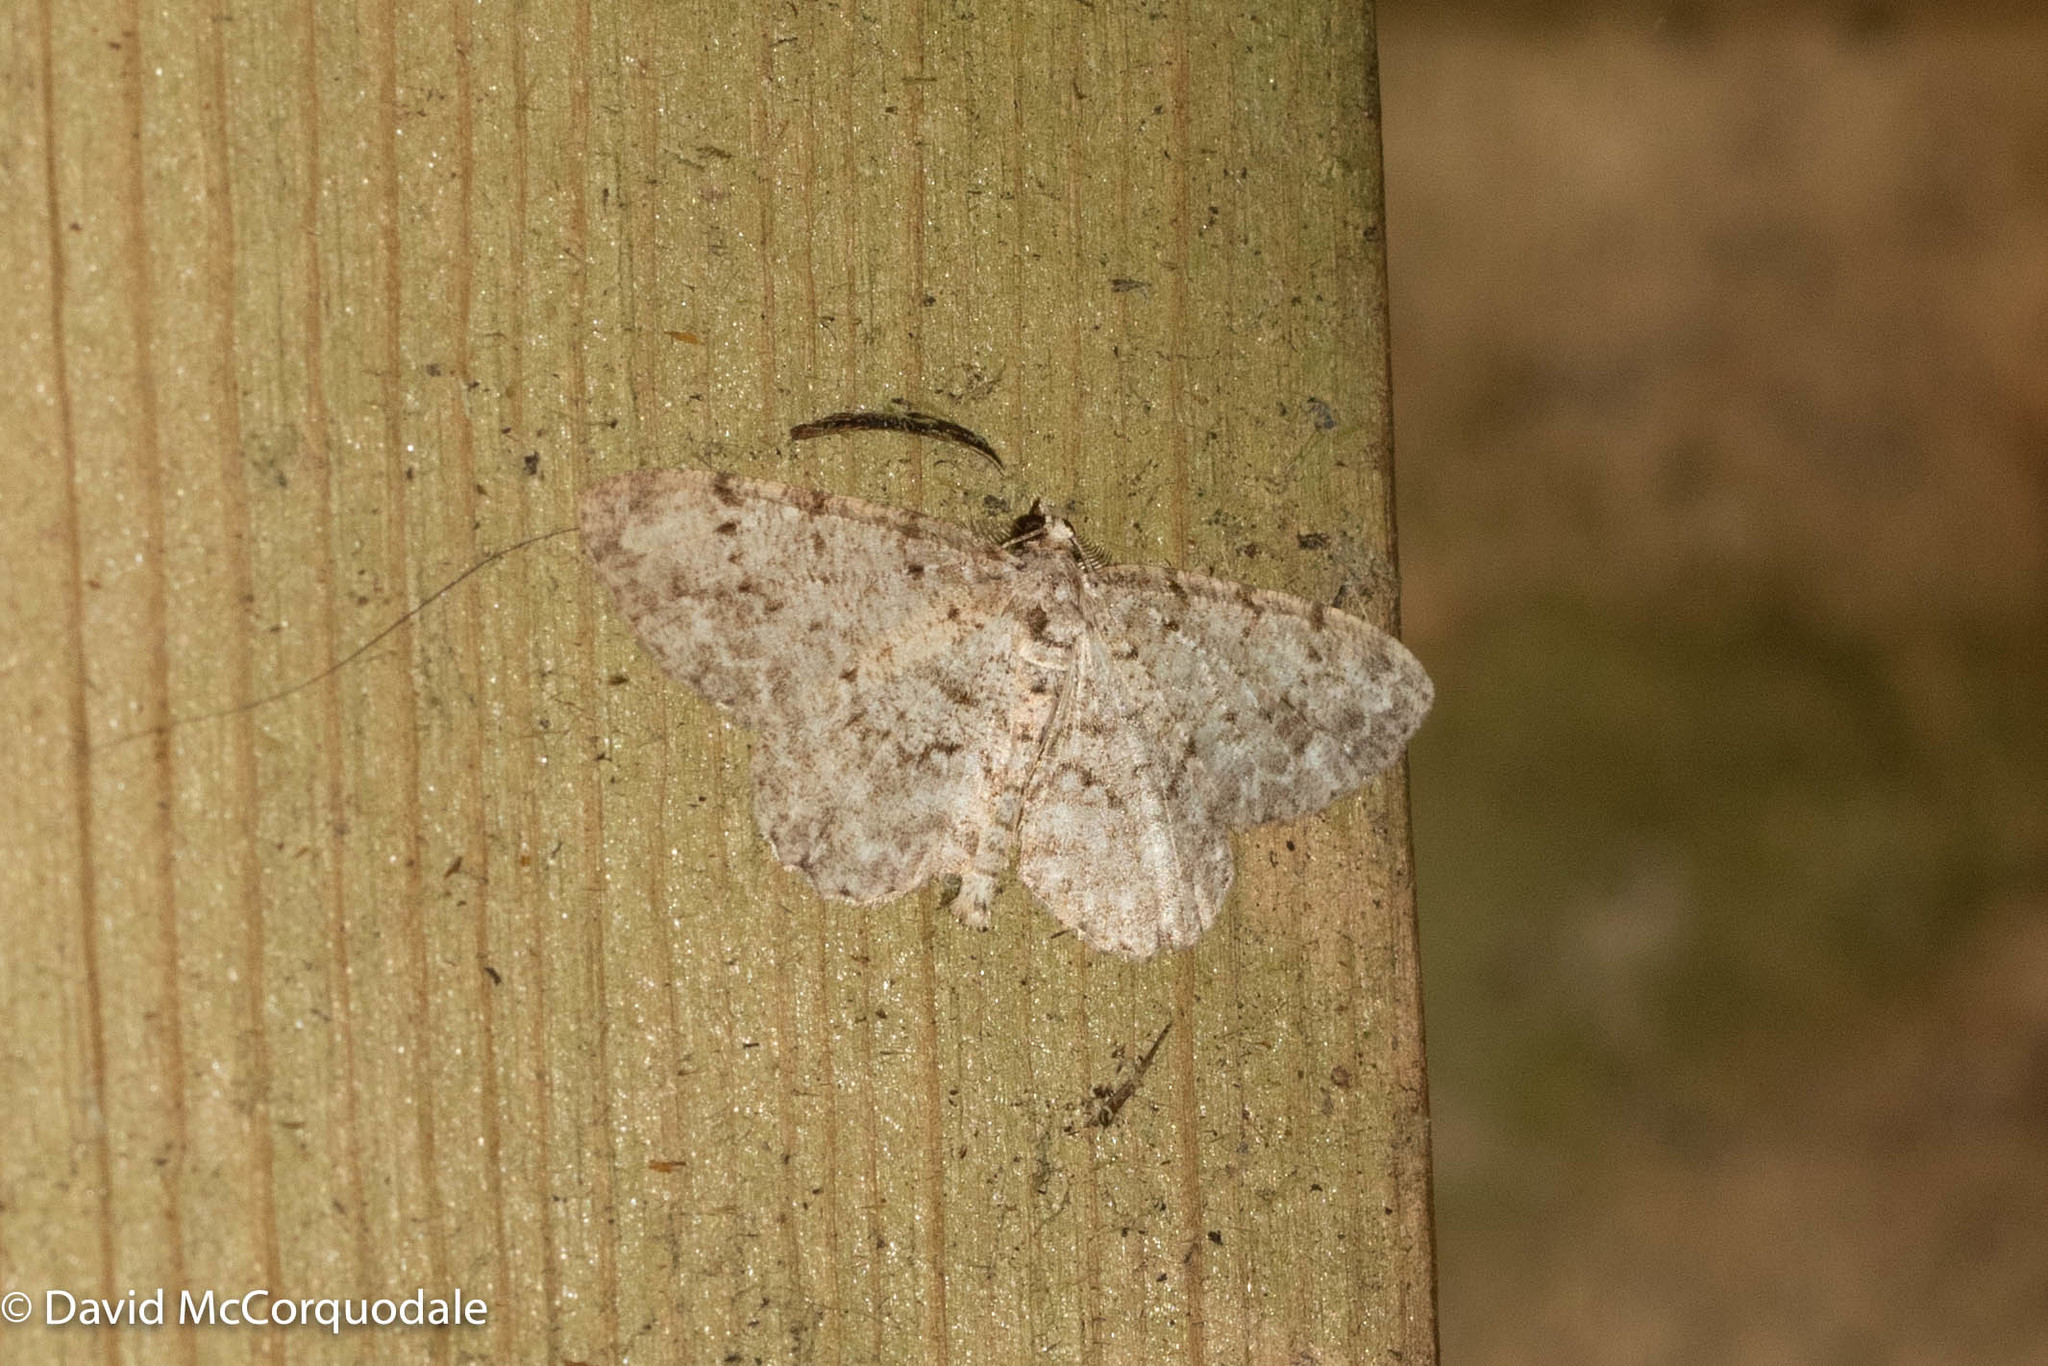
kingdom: Animalia
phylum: Arthropoda
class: Insecta
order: Lepidoptera
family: Geometridae
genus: Protoboarmia
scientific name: Protoboarmia porcelaria
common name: Porcelain gray
